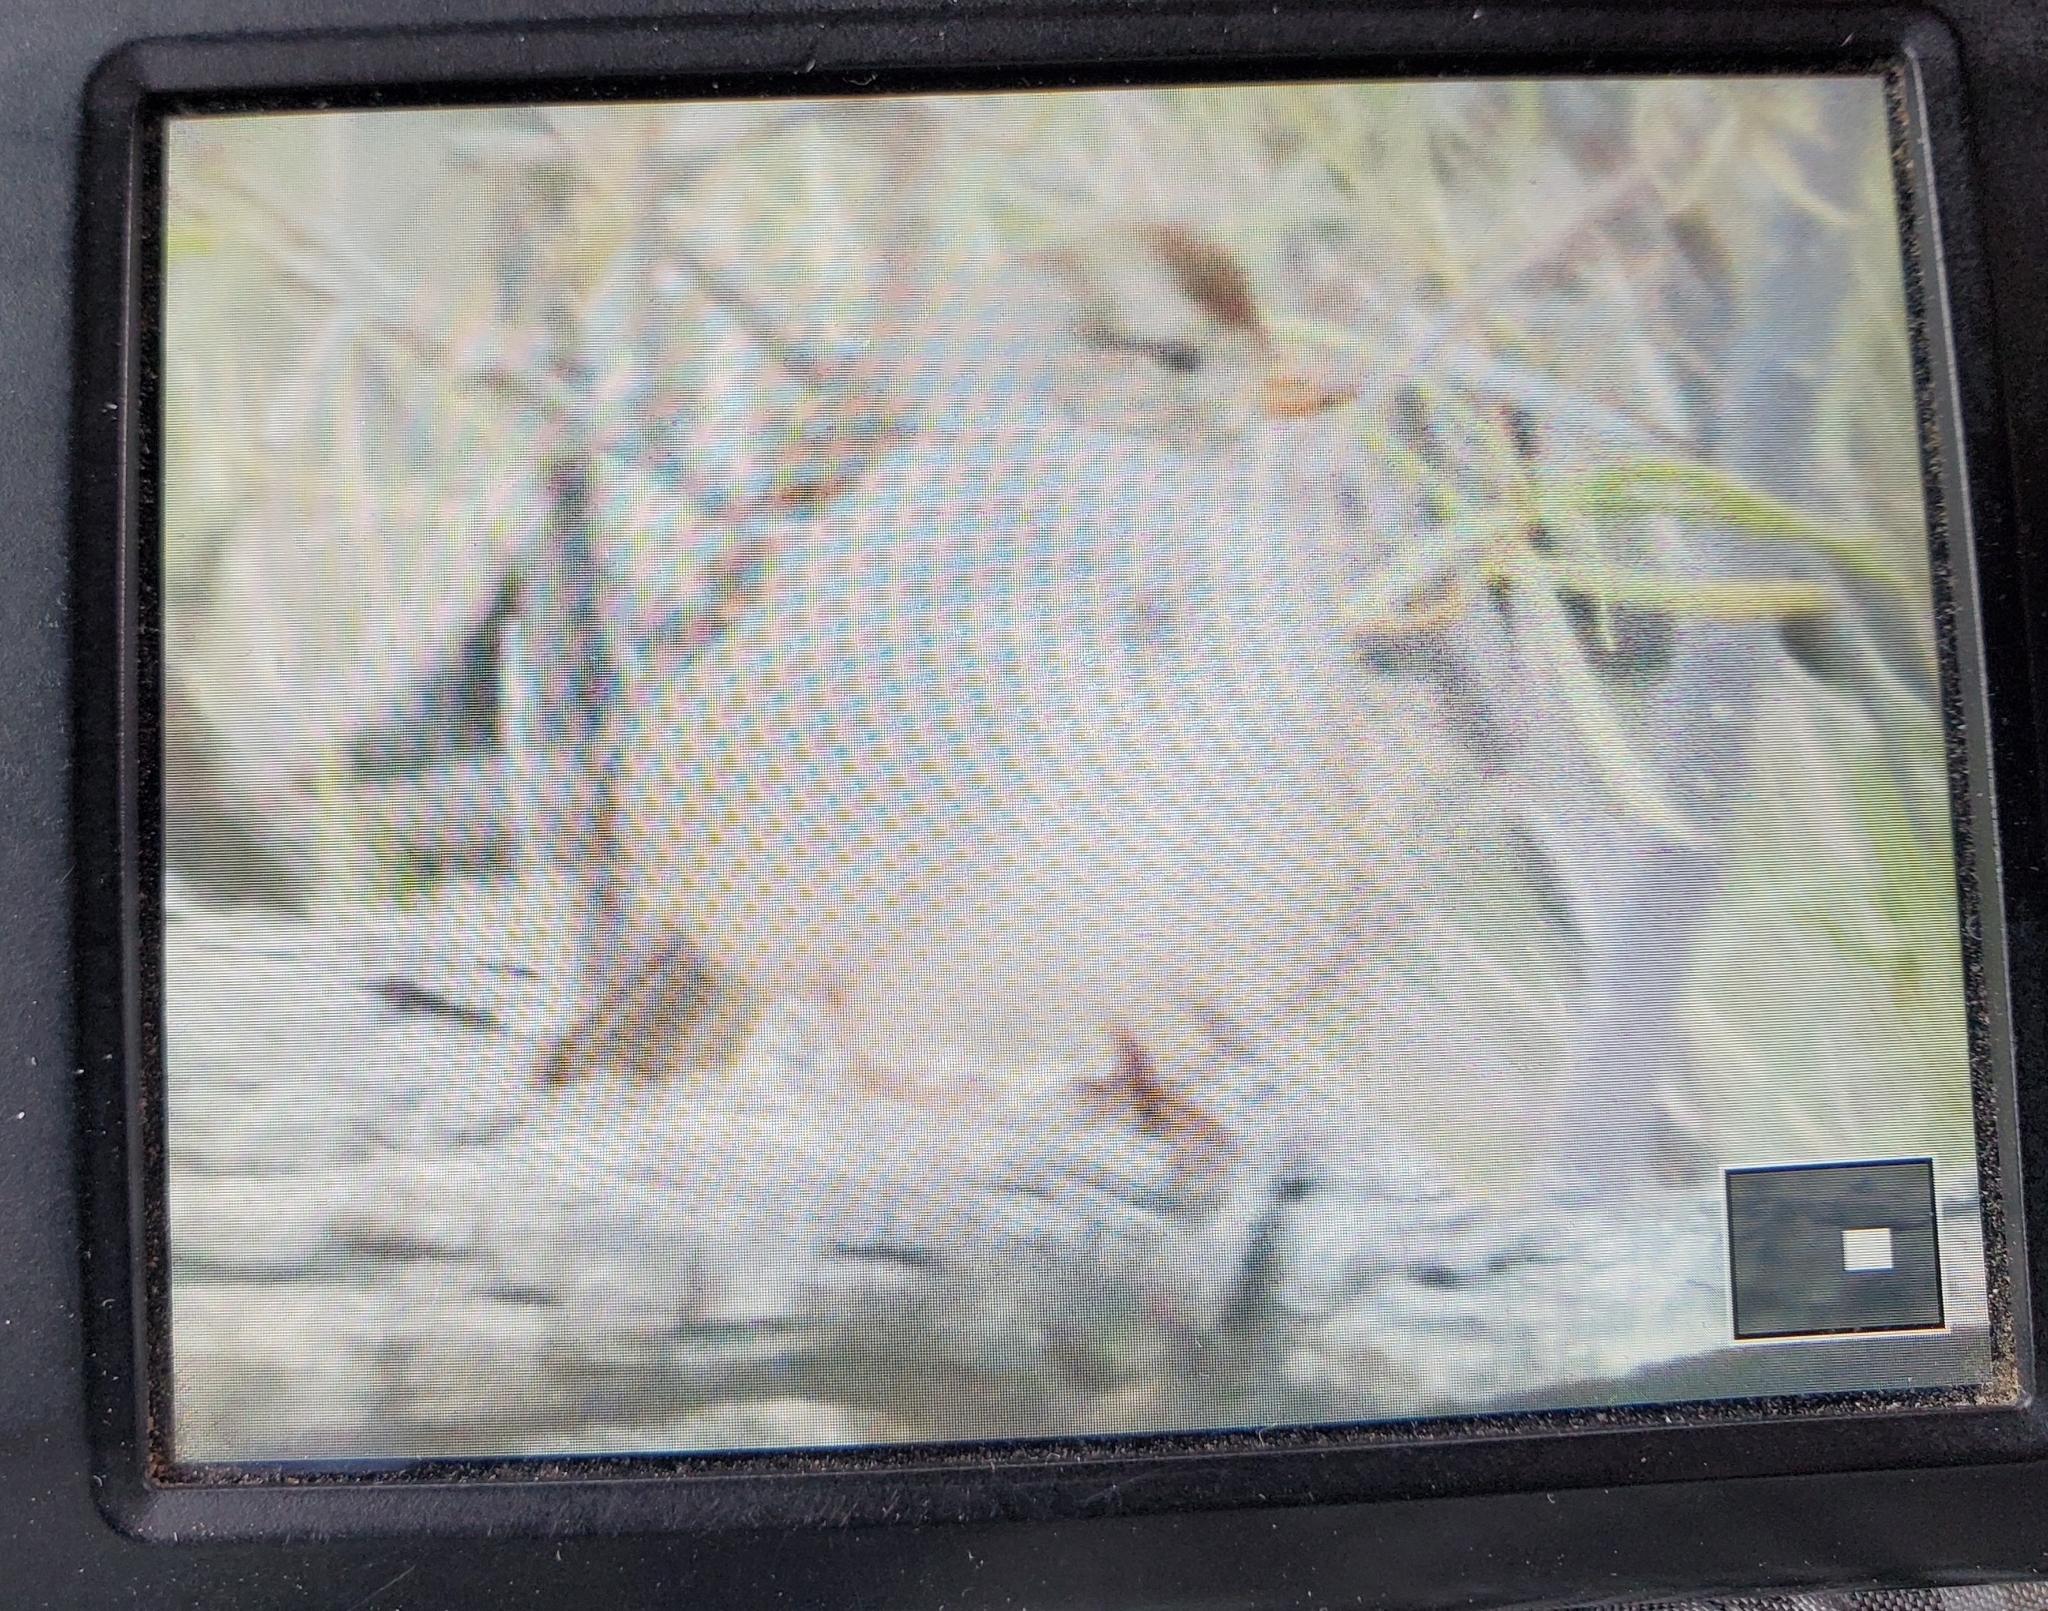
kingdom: Animalia
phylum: Chordata
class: Aves
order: Passeriformes
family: Passerellidae
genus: Zonotrichia
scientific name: Zonotrichia leucophrys
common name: White-crowned sparrow
